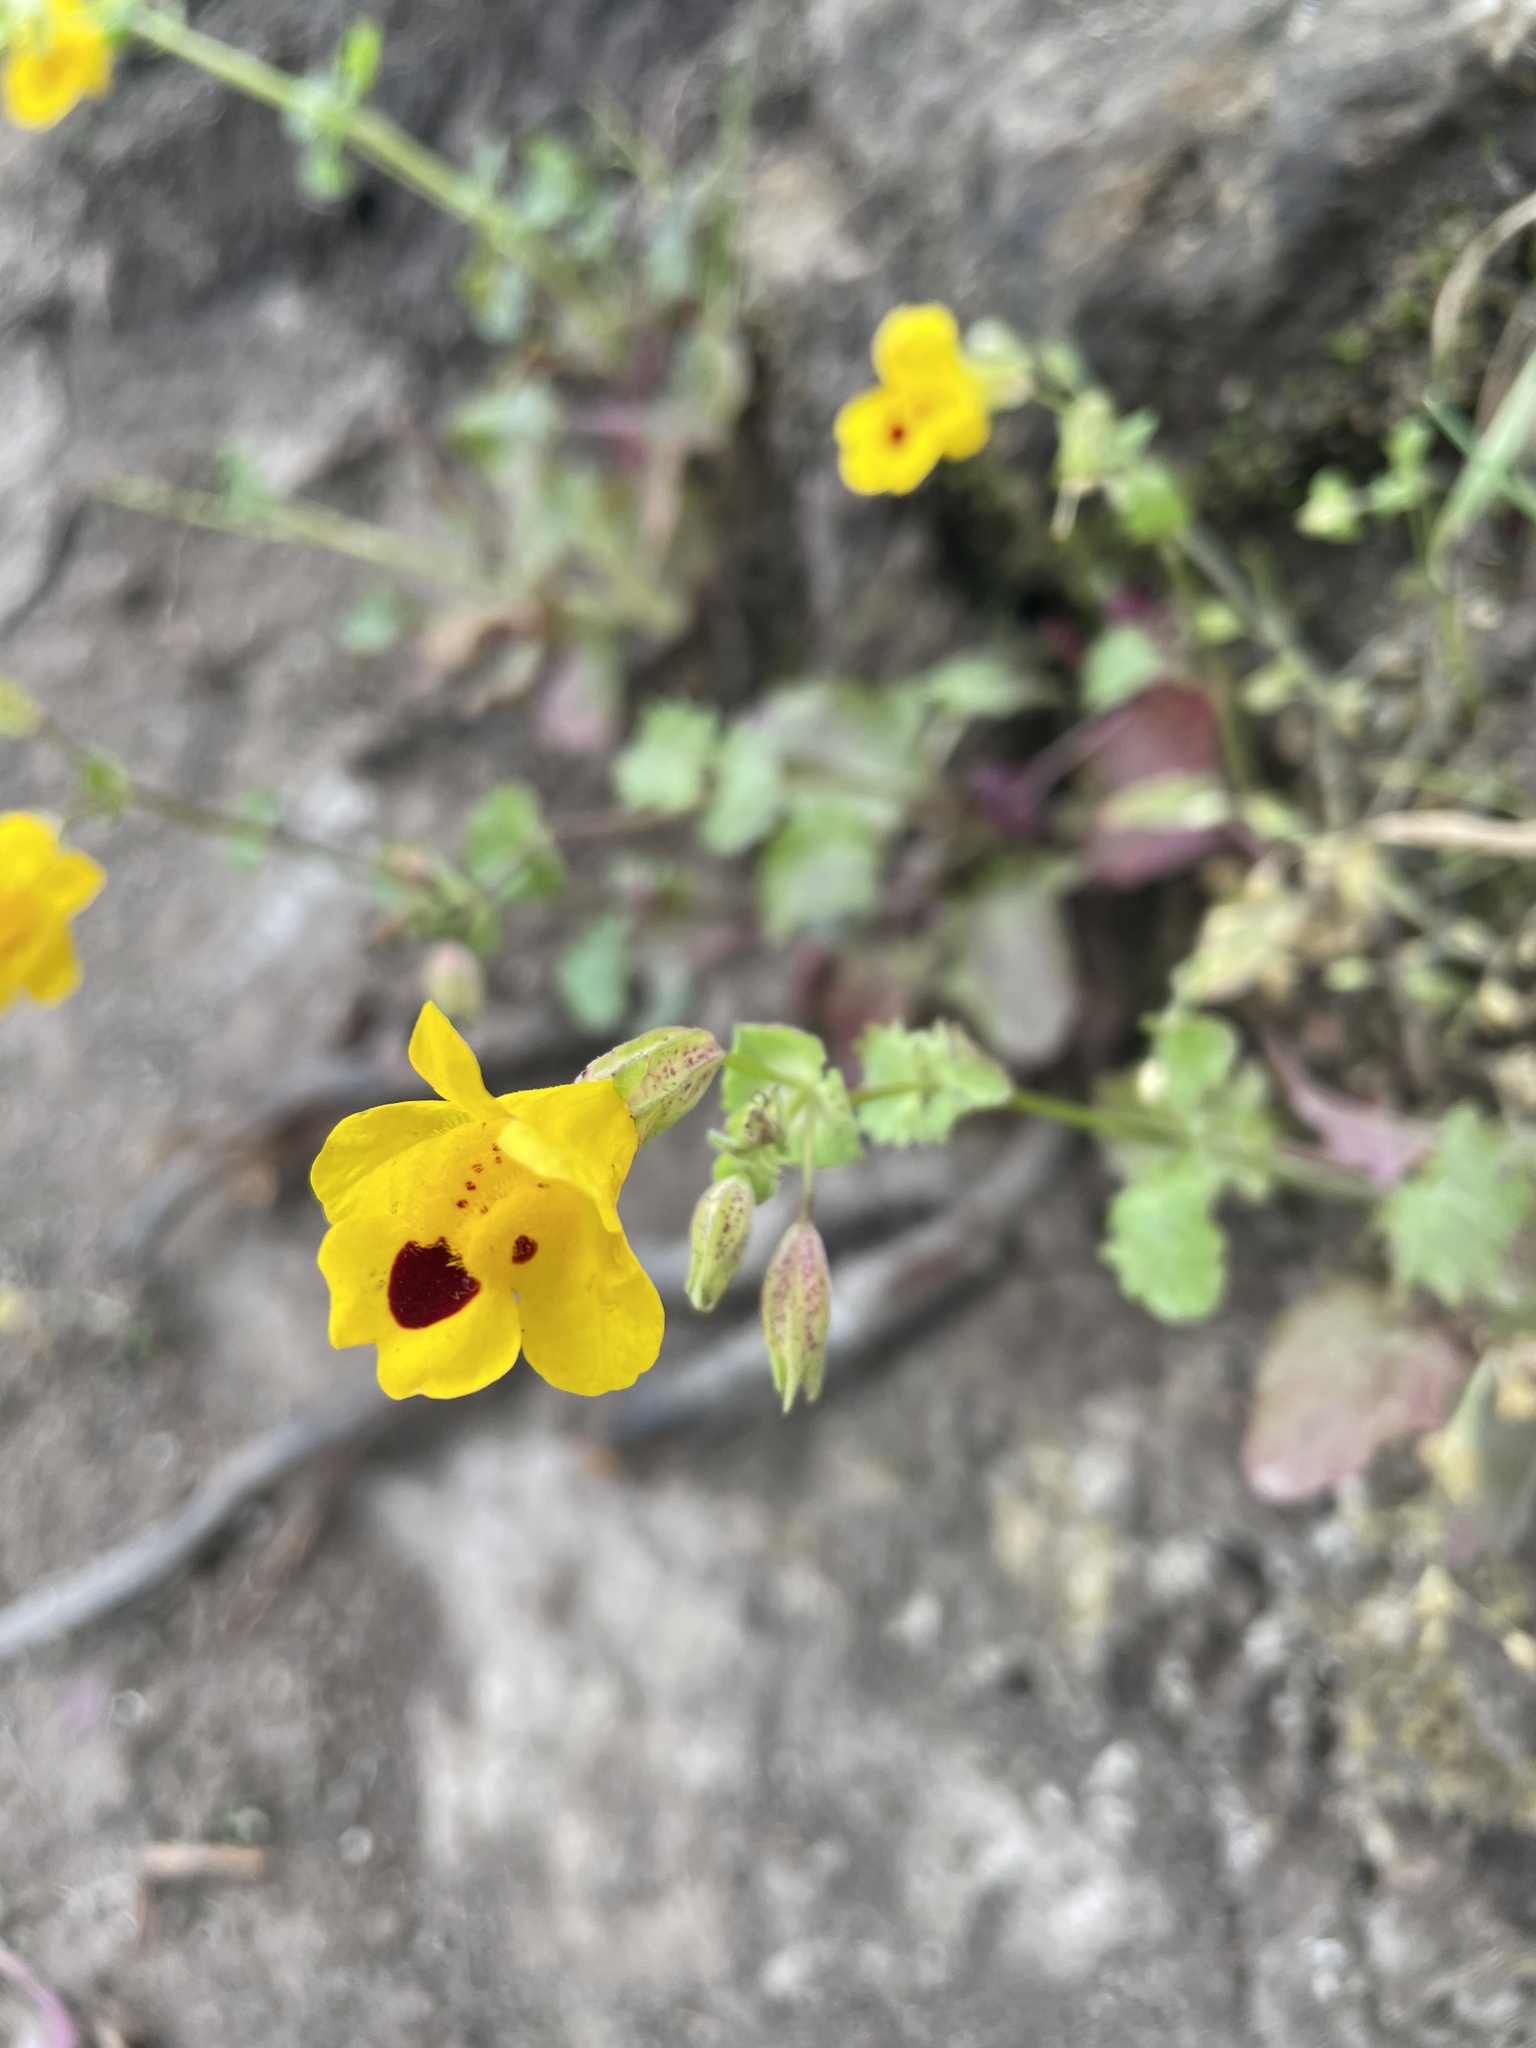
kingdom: Plantae
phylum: Tracheophyta
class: Magnoliopsida
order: Lamiales
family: Phrymaceae
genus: Erythranthe
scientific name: Erythranthe guttata
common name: Monkeyflower
